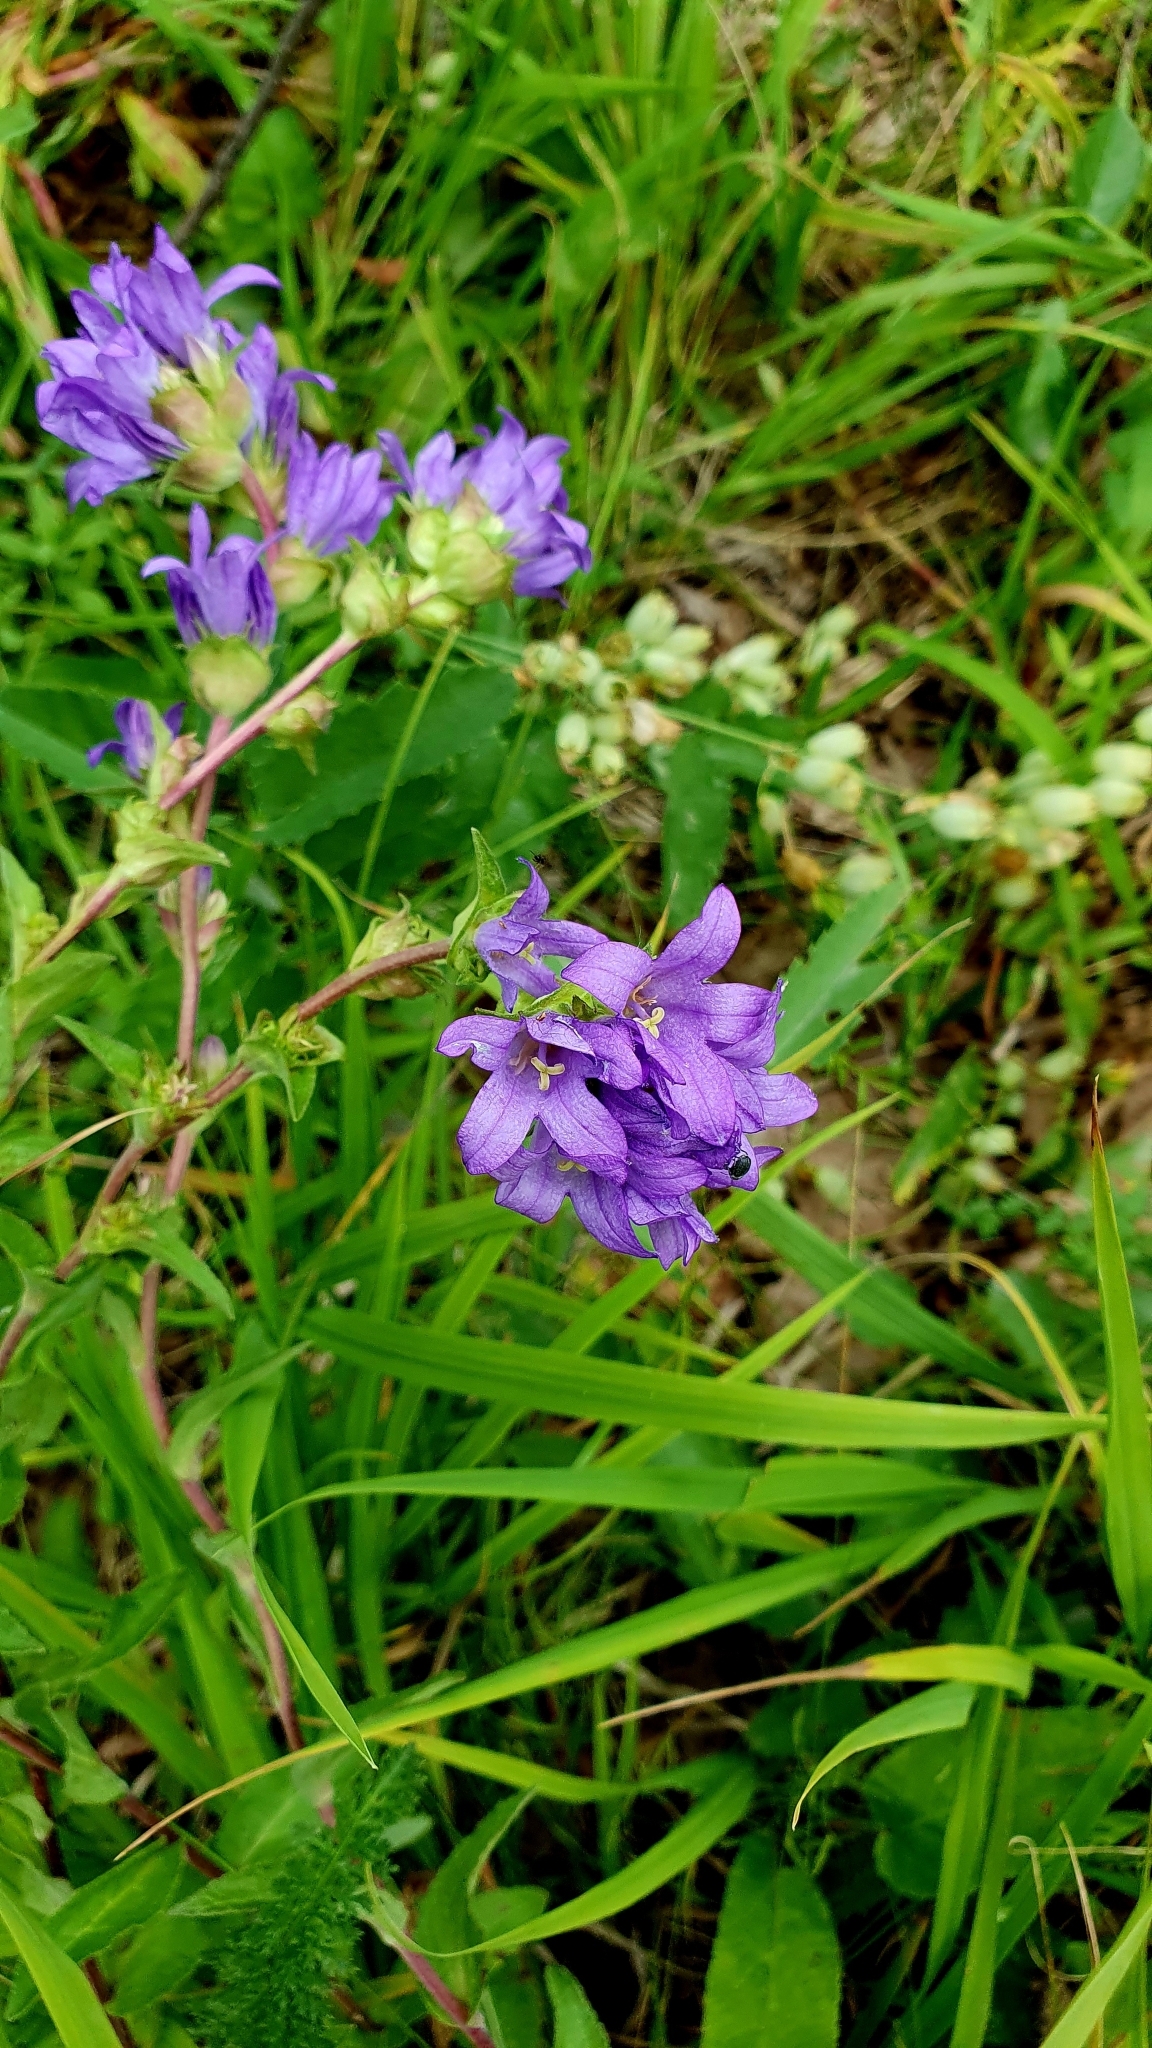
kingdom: Plantae
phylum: Tracheophyta
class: Magnoliopsida
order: Asterales
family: Campanulaceae
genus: Campanula
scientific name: Campanula glomerata
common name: Clustered bellflower
